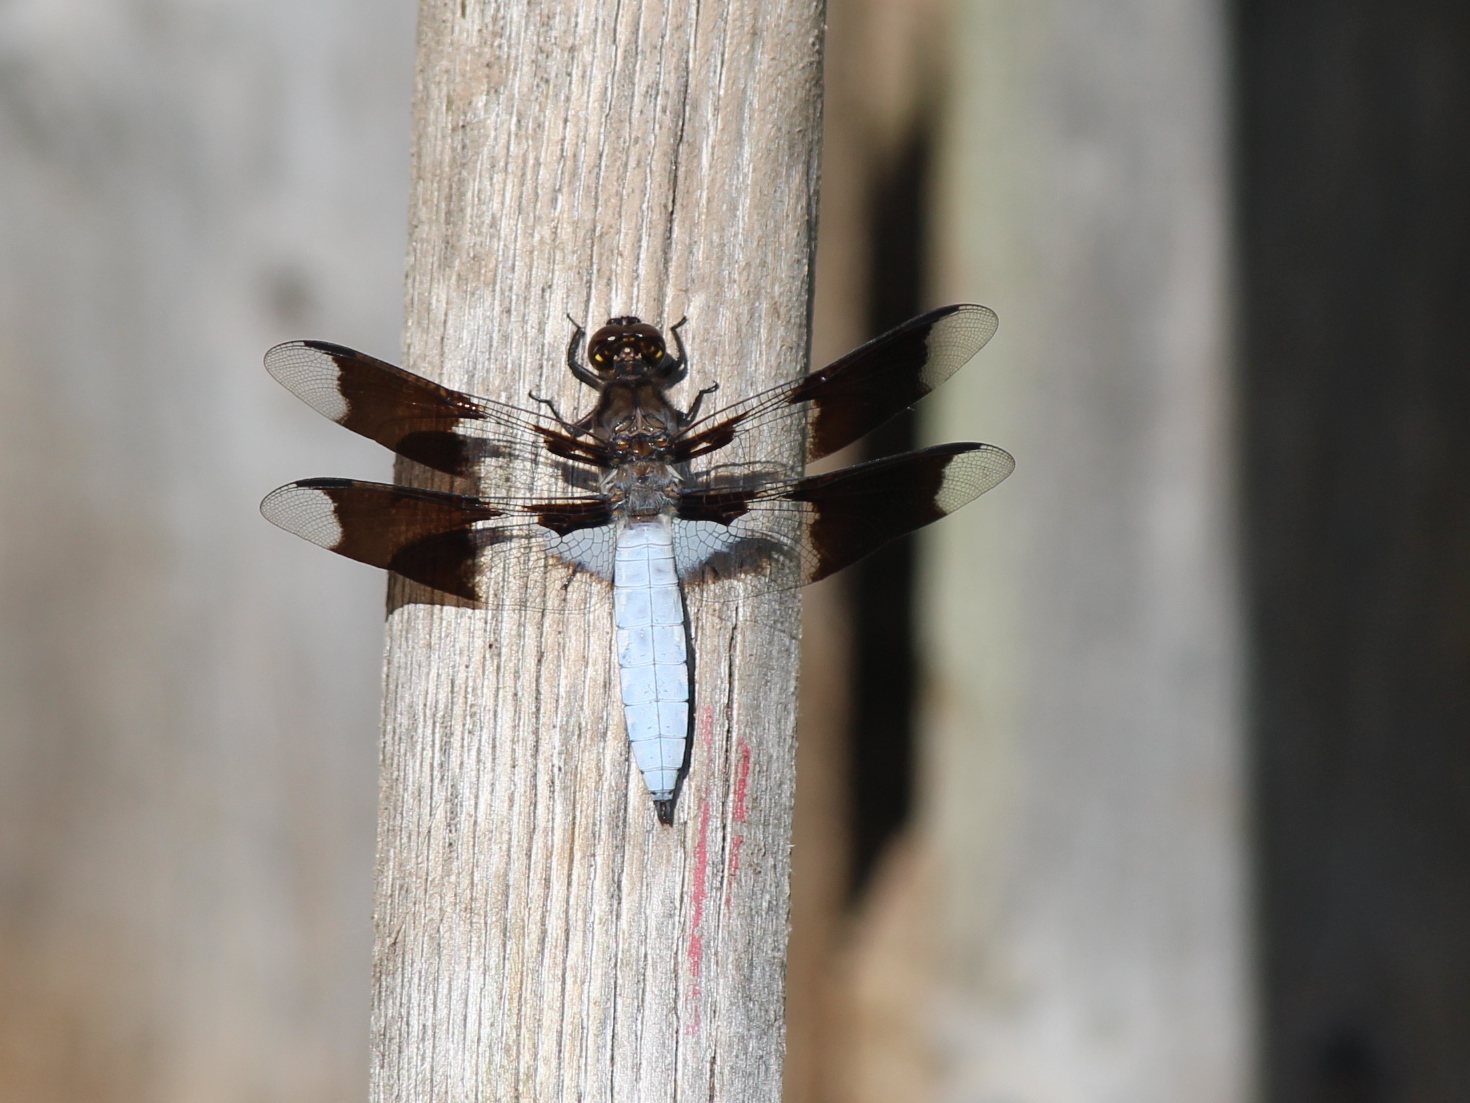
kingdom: Animalia
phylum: Arthropoda
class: Insecta
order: Odonata
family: Libellulidae
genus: Plathemis
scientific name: Plathemis lydia
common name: Common whitetail
